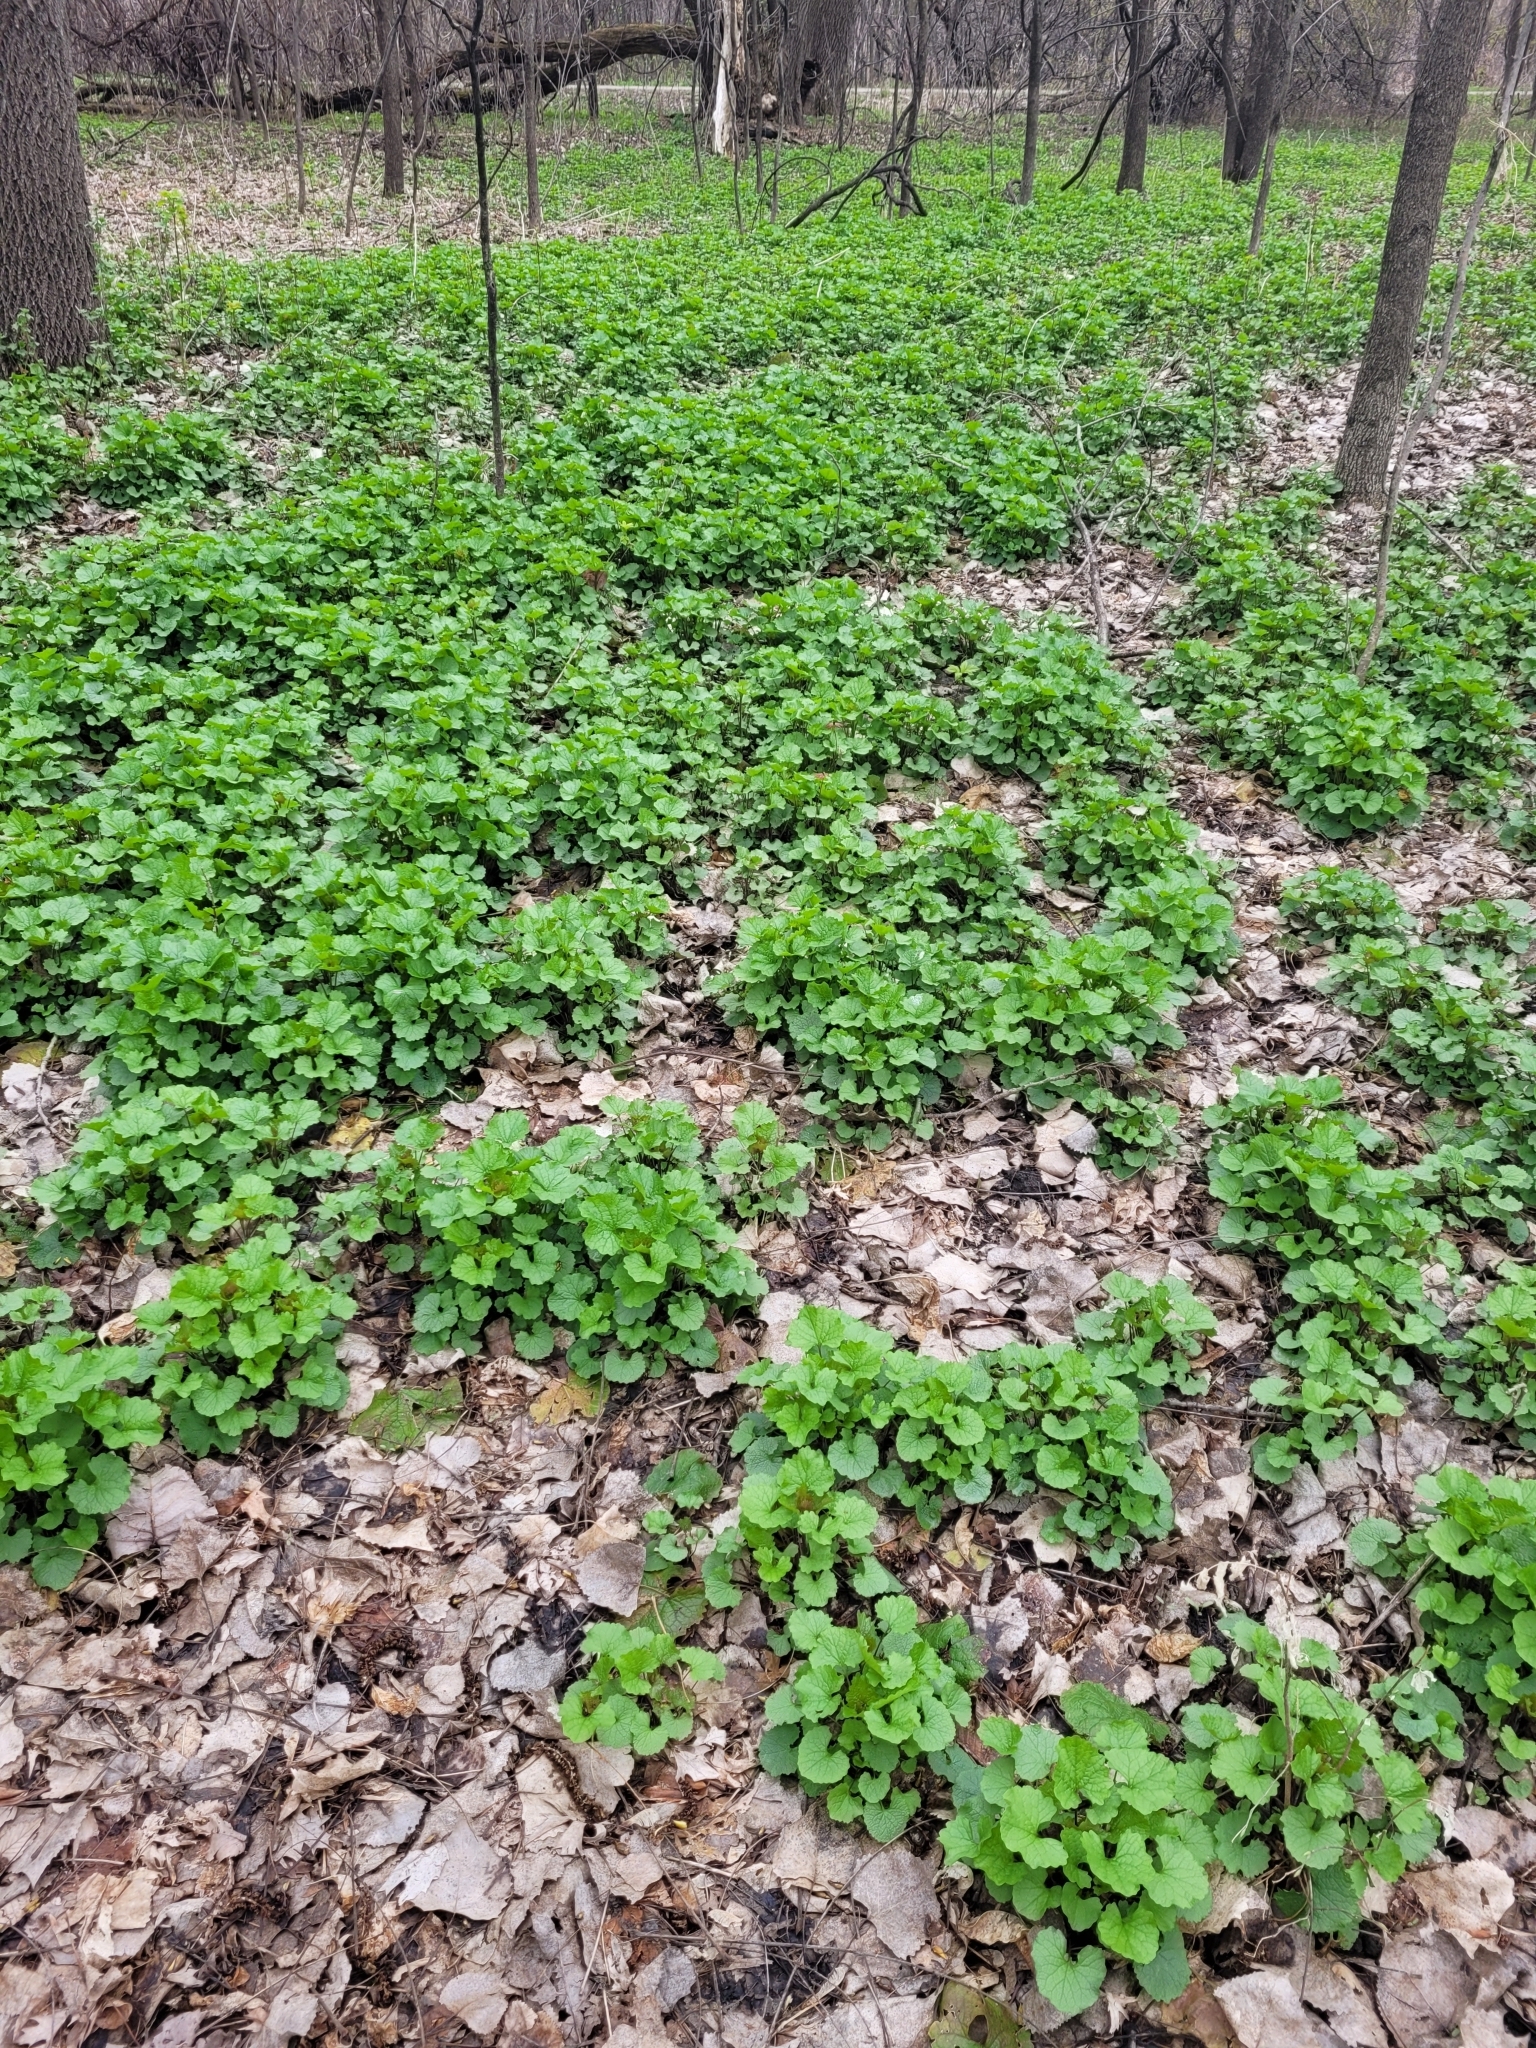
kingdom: Plantae
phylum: Tracheophyta
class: Magnoliopsida
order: Brassicales
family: Brassicaceae
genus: Alliaria
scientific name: Alliaria petiolata
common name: Garlic mustard
